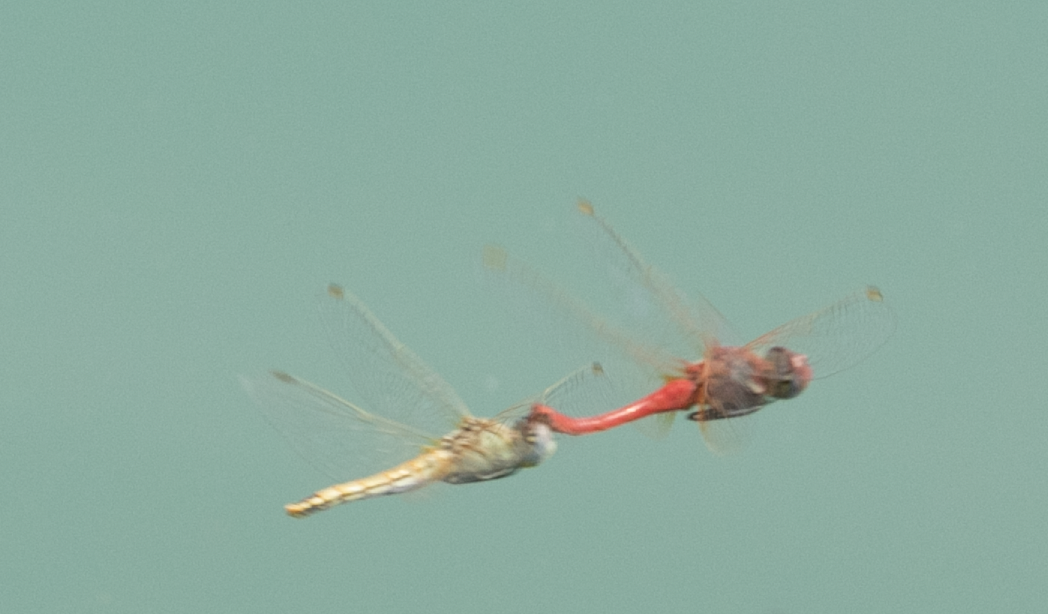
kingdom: Animalia
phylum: Arthropoda
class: Insecta
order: Odonata
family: Libellulidae
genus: Sympetrum
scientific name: Sympetrum fonscolombii
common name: Red-veined darter
